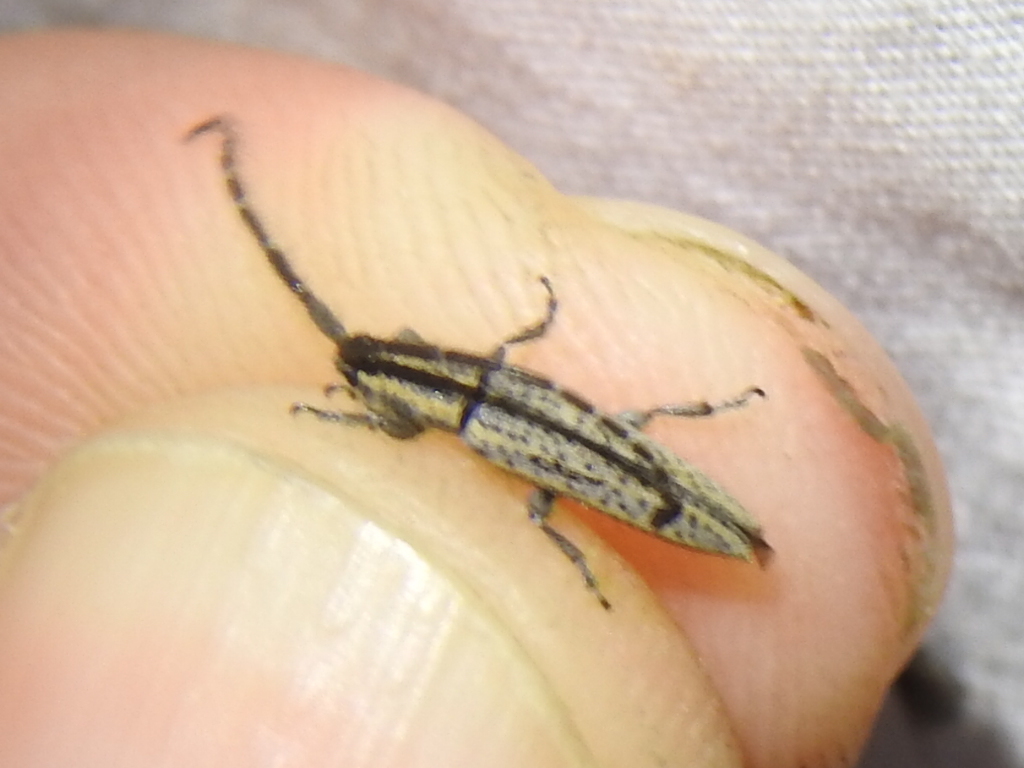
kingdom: Animalia
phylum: Arthropoda
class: Insecta
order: Coleoptera
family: Cerambycidae
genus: Dorcasta
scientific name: Dorcasta cinerea
